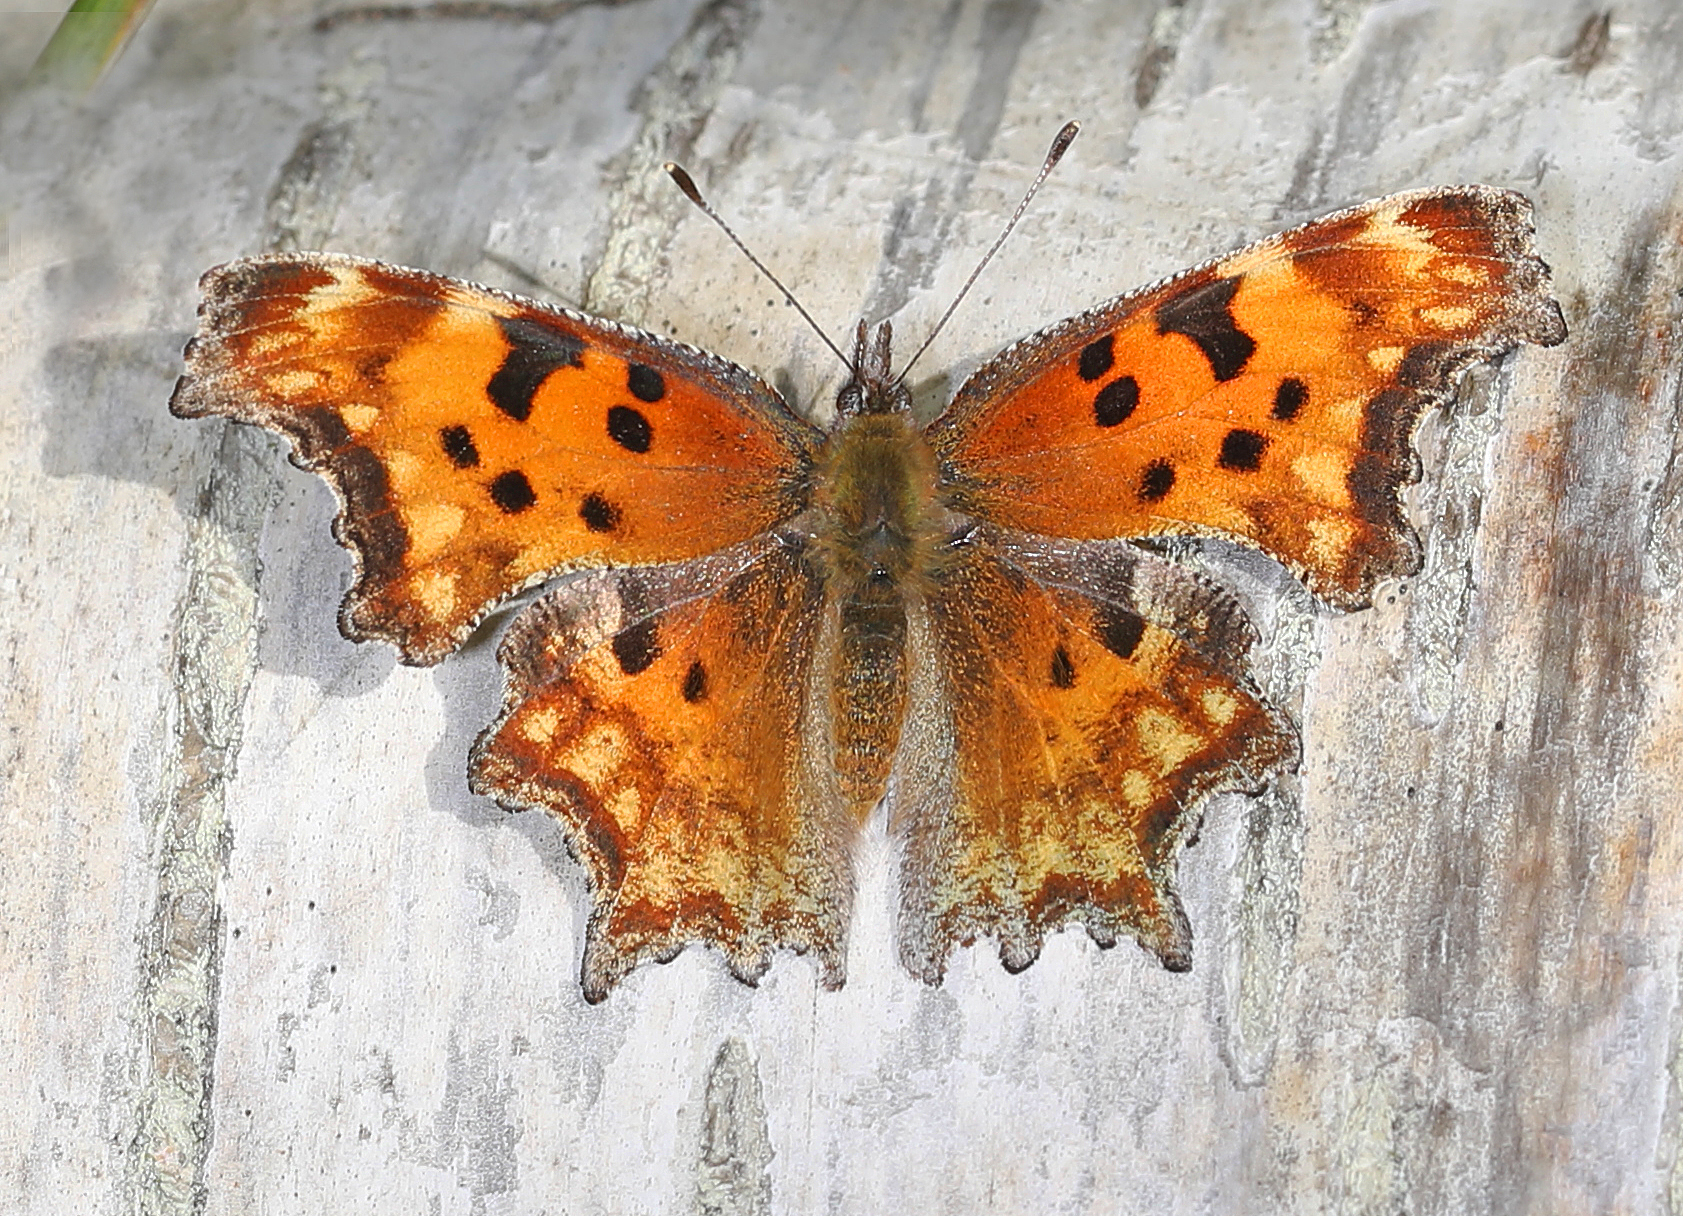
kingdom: Animalia
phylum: Arthropoda
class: Insecta
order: Lepidoptera
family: Nymphalidae
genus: Polygonia
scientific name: Polygonia gracilis
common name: Hoary comma
